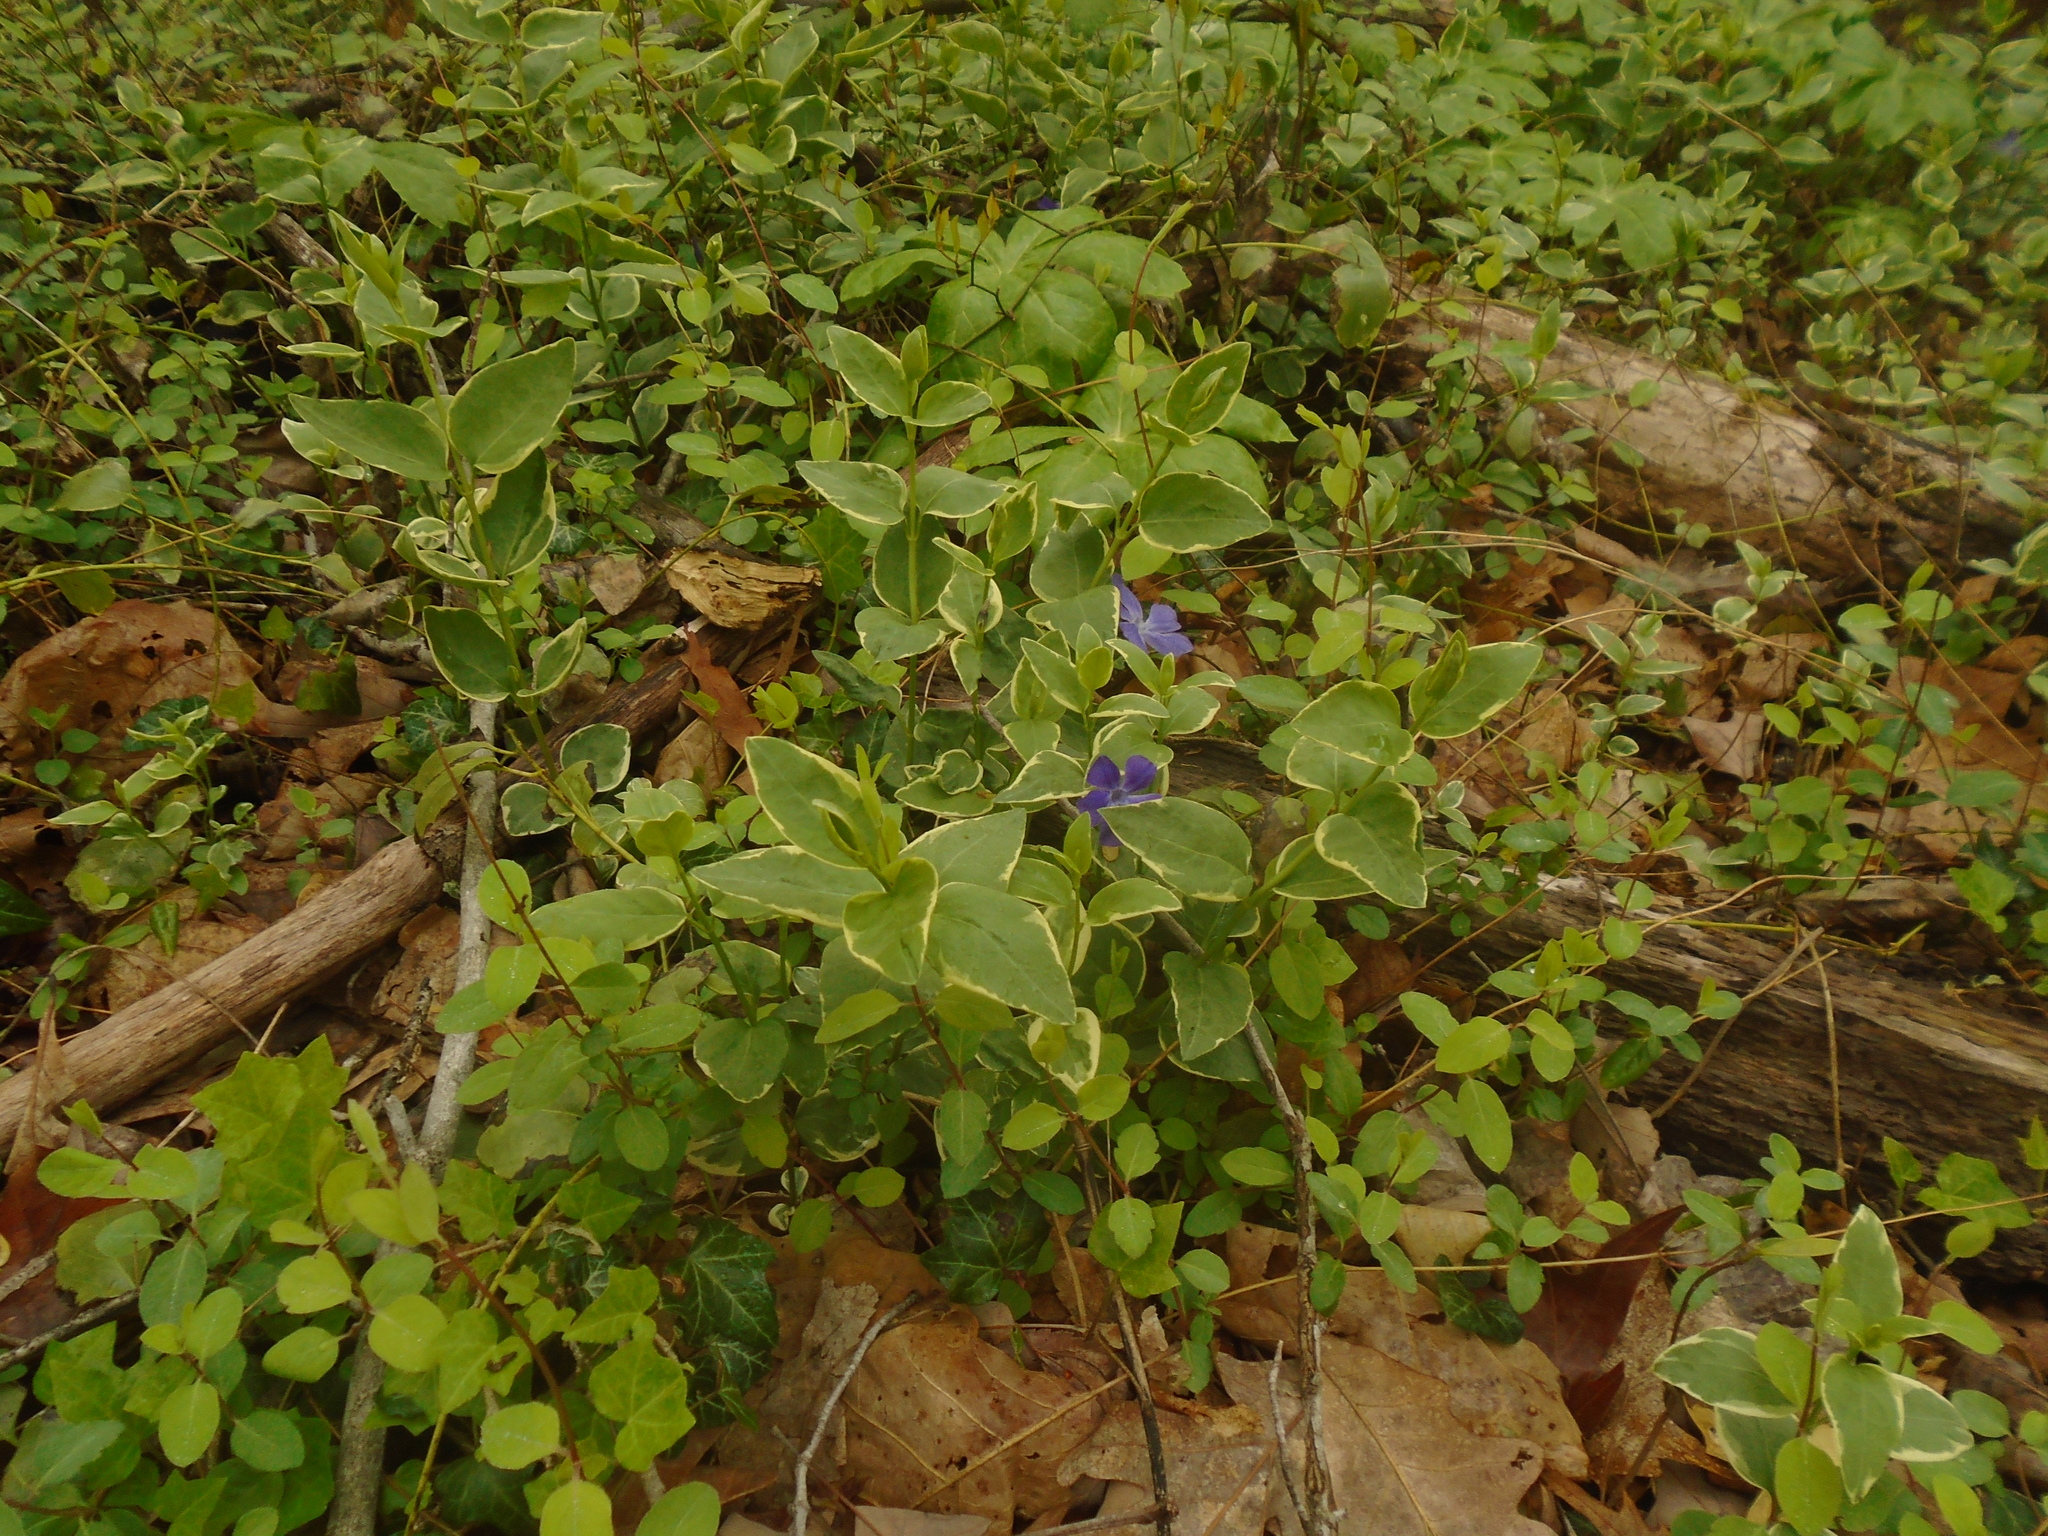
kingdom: Plantae
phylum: Tracheophyta
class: Magnoliopsida
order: Gentianales
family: Apocynaceae
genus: Vinca
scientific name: Vinca major
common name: Greater periwinkle
